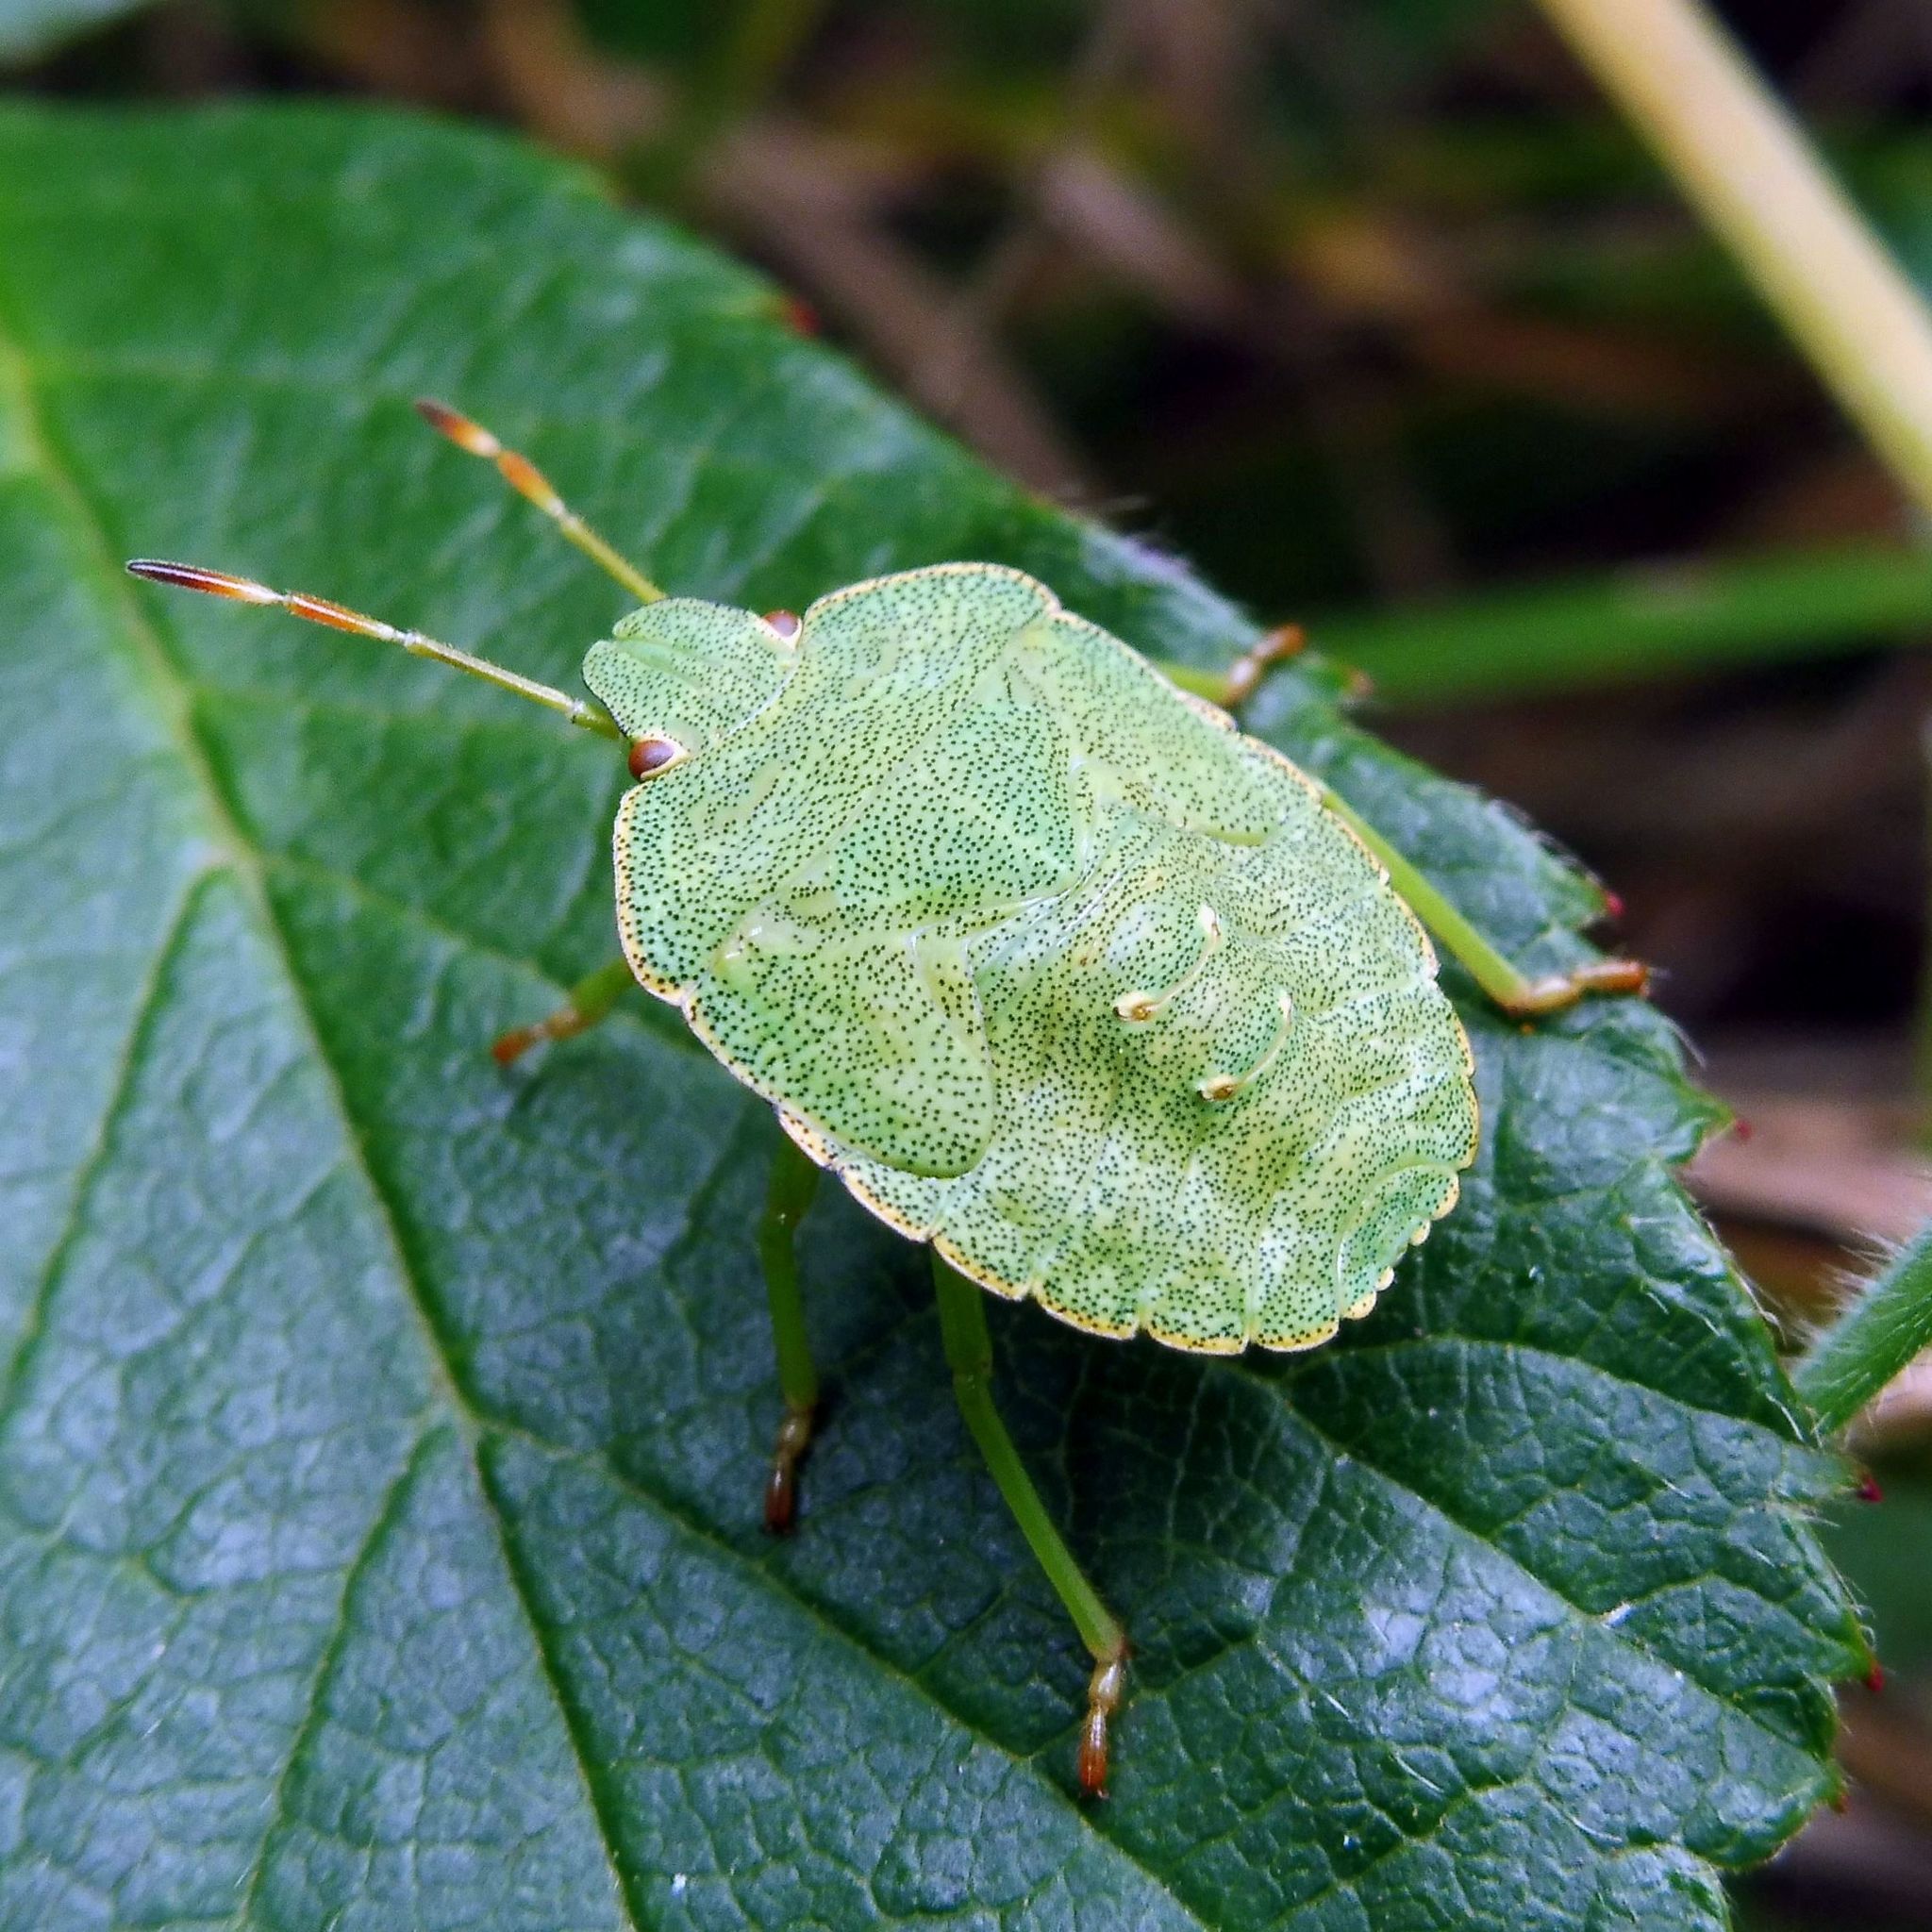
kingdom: Animalia
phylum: Arthropoda
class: Insecta
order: Hemiptera
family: Pentatomidae
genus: Palomena
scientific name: Palomena prasina
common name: Green shieldbug
